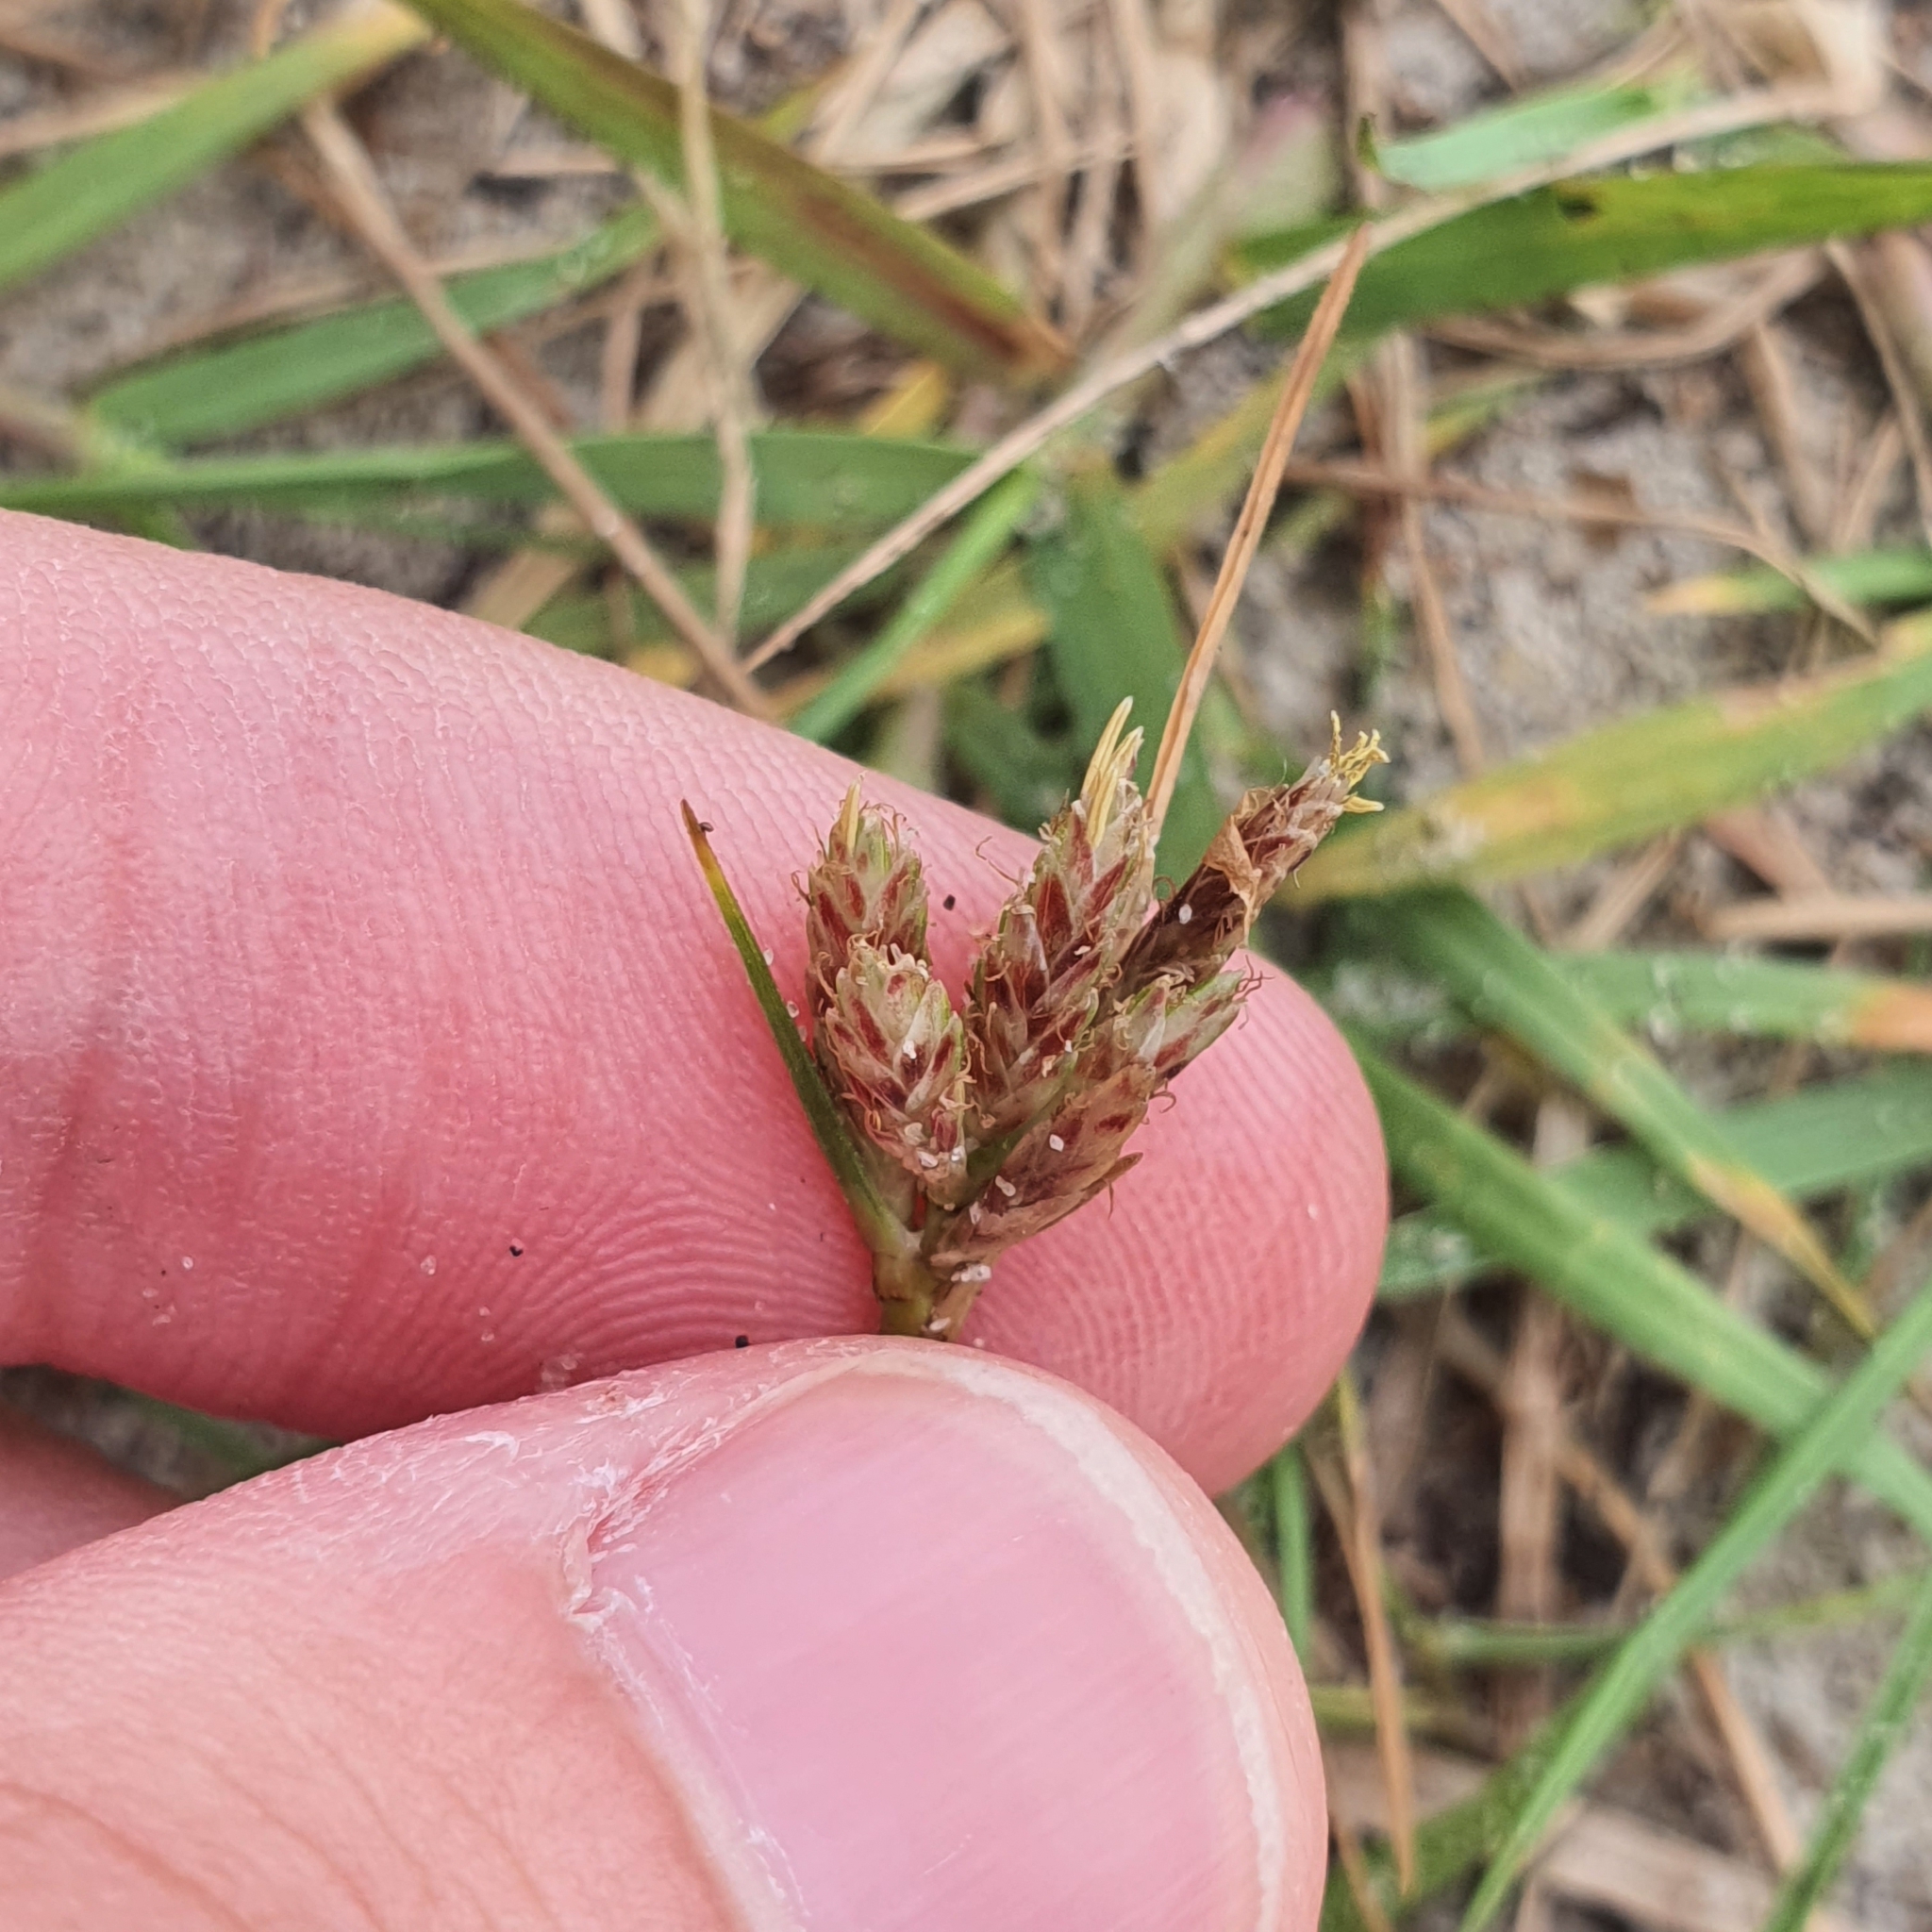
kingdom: Plantae
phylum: Tracheophyta
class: Liliopsida
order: Poales
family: Cyperaceae
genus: Cyperus
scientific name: Cyperus stoloniferus
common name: Nutgrass
